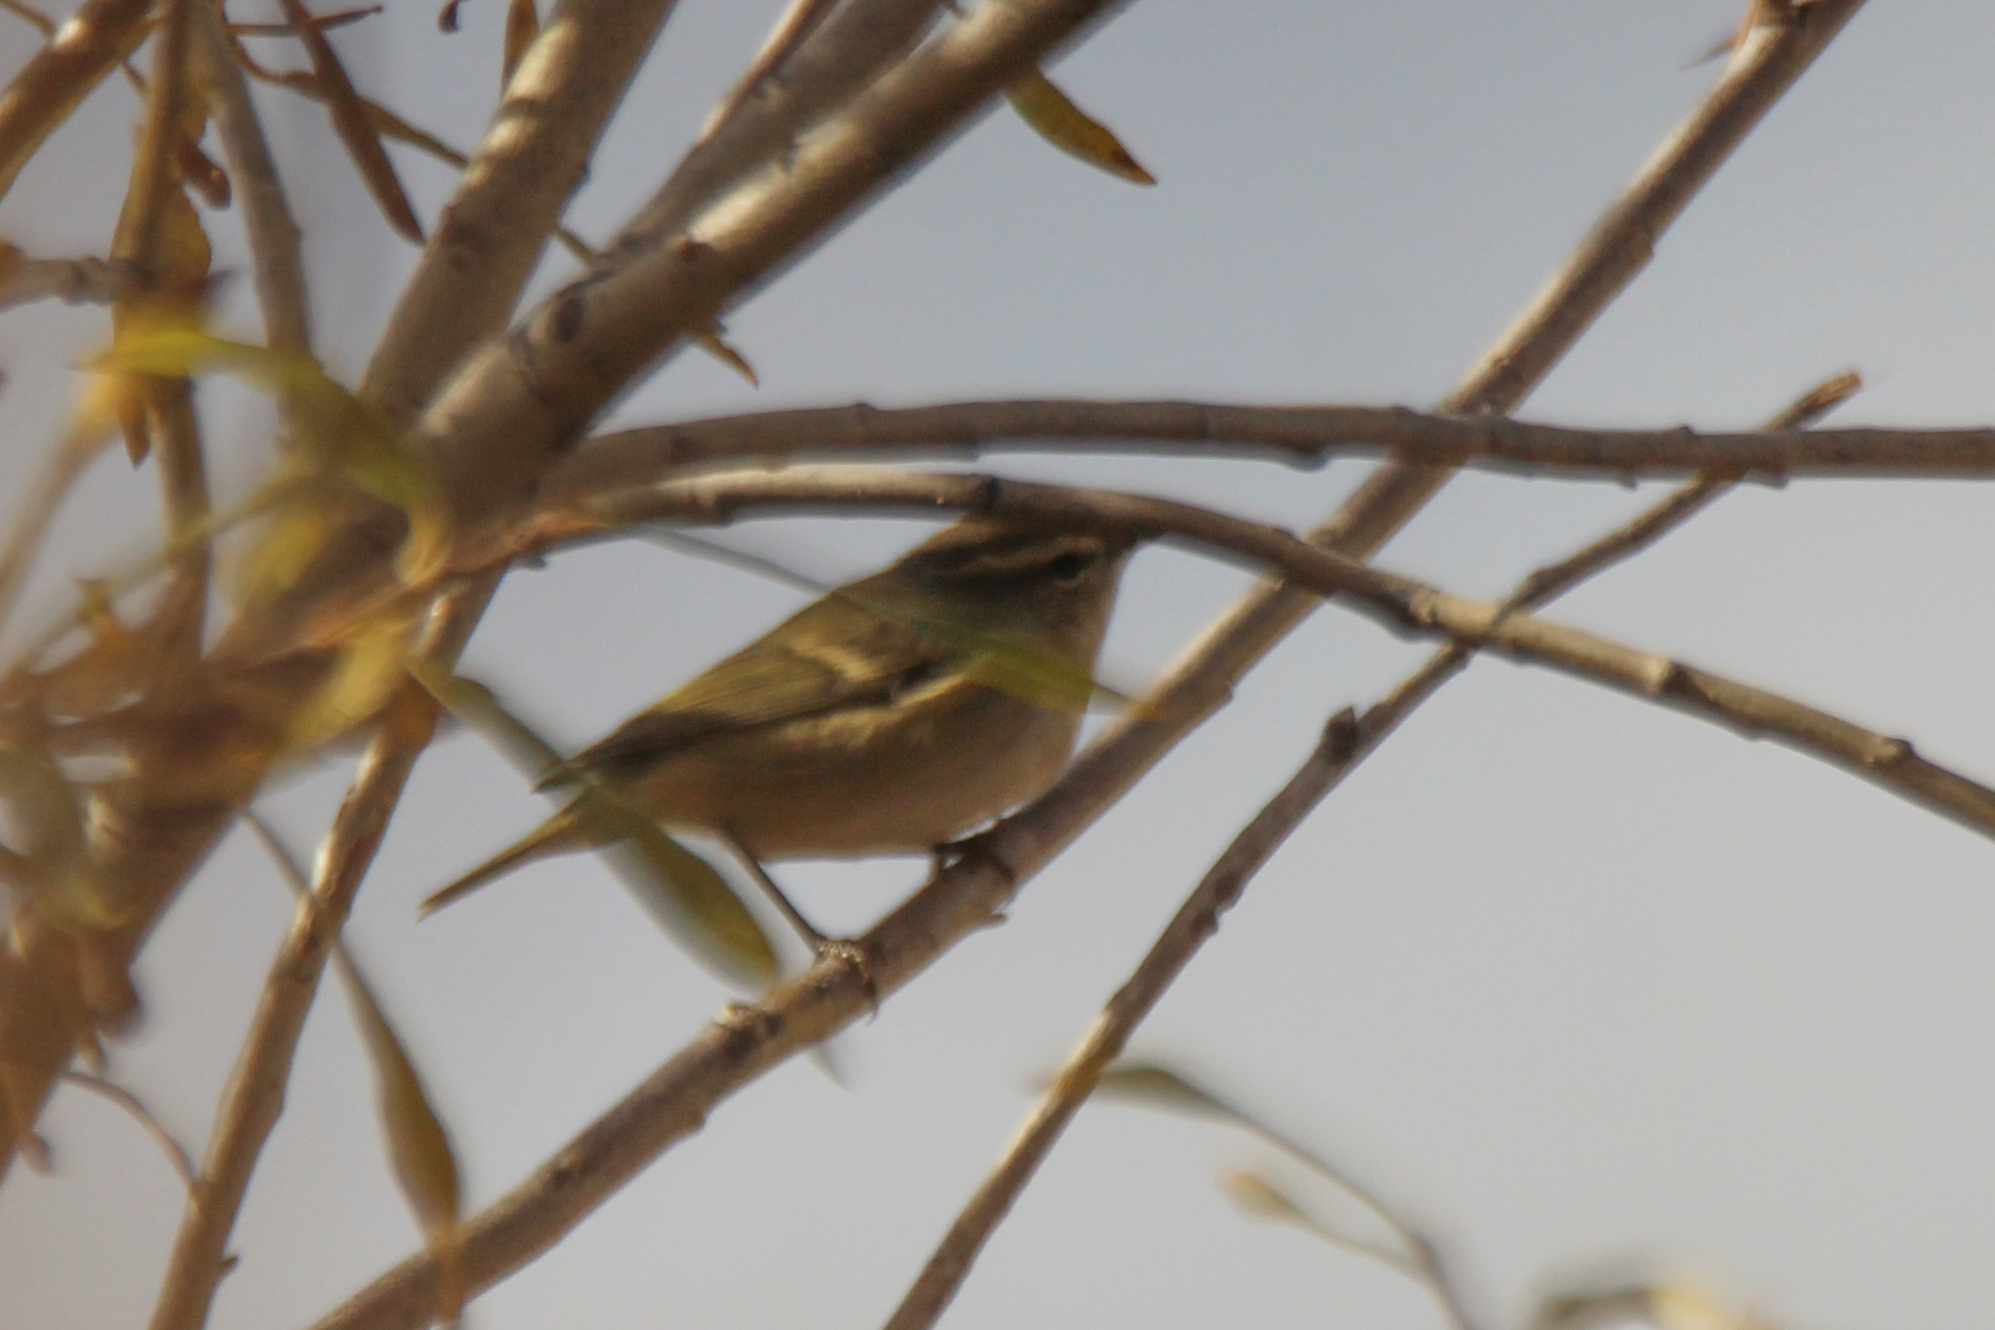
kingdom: Animalia
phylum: Chordata
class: Aves
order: Passeriformes
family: Phylloscopidae
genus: Phylloscopus
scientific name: Phylloscopus humei
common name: Hume's leaf warbler
